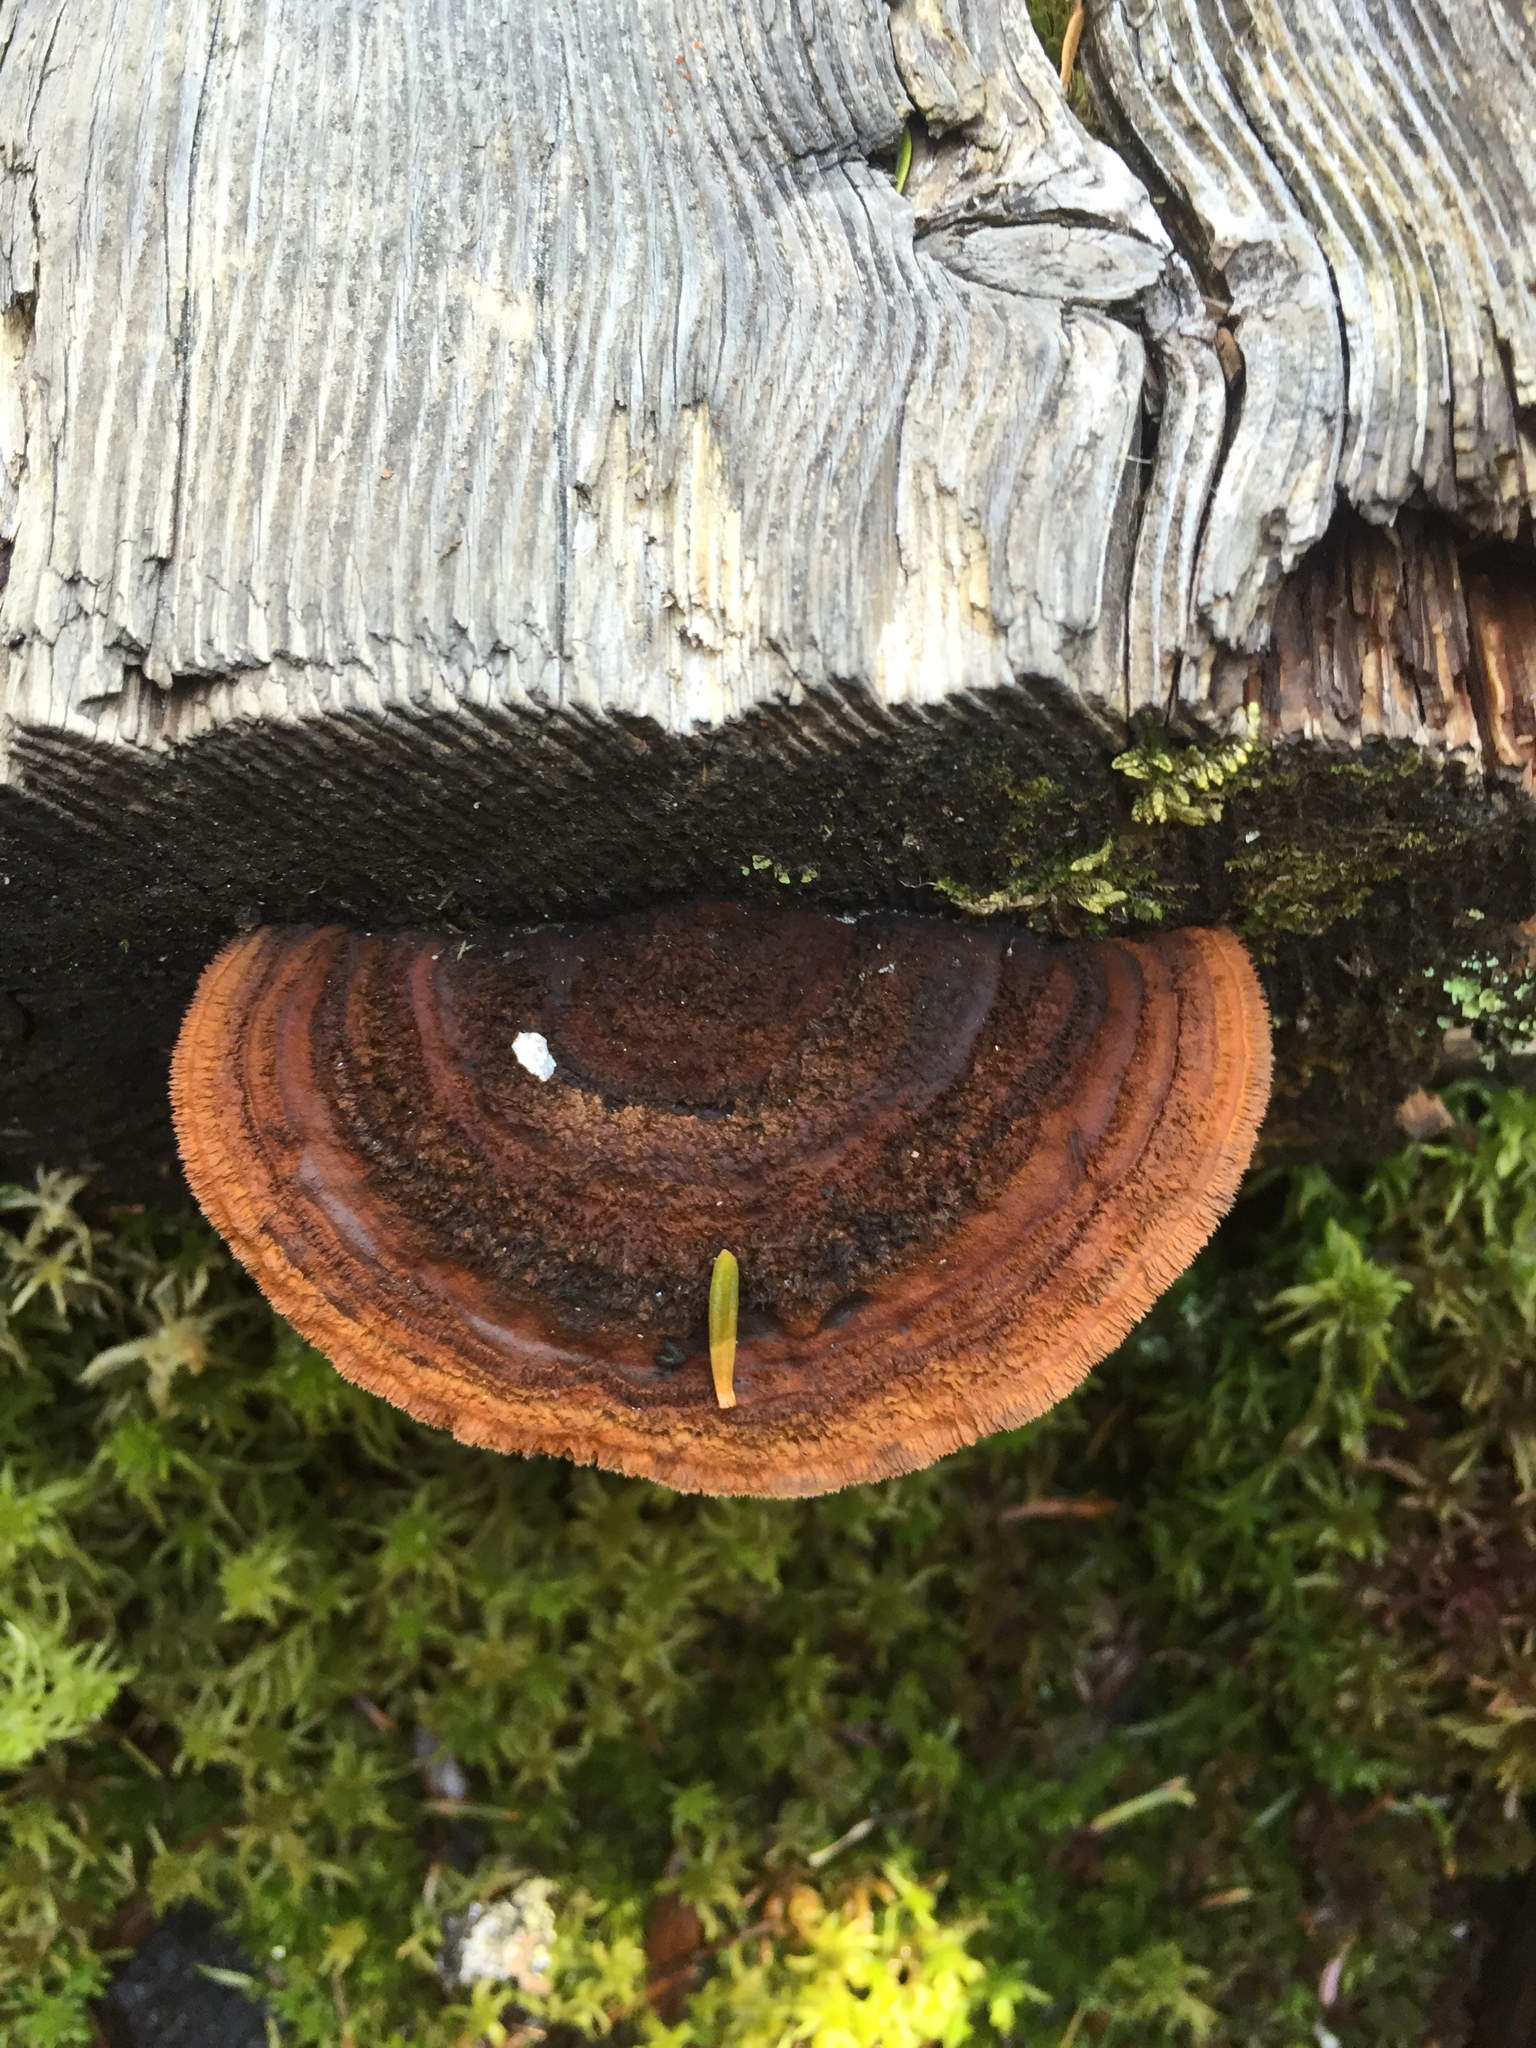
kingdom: Fungi
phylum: Basidiomycota
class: Agaricomycetes
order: Gloeophyllales
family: Gloeophyllaceae
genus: Gloeophyllum
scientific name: Gloeophyllum sepiarium
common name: Conifer mazegill
